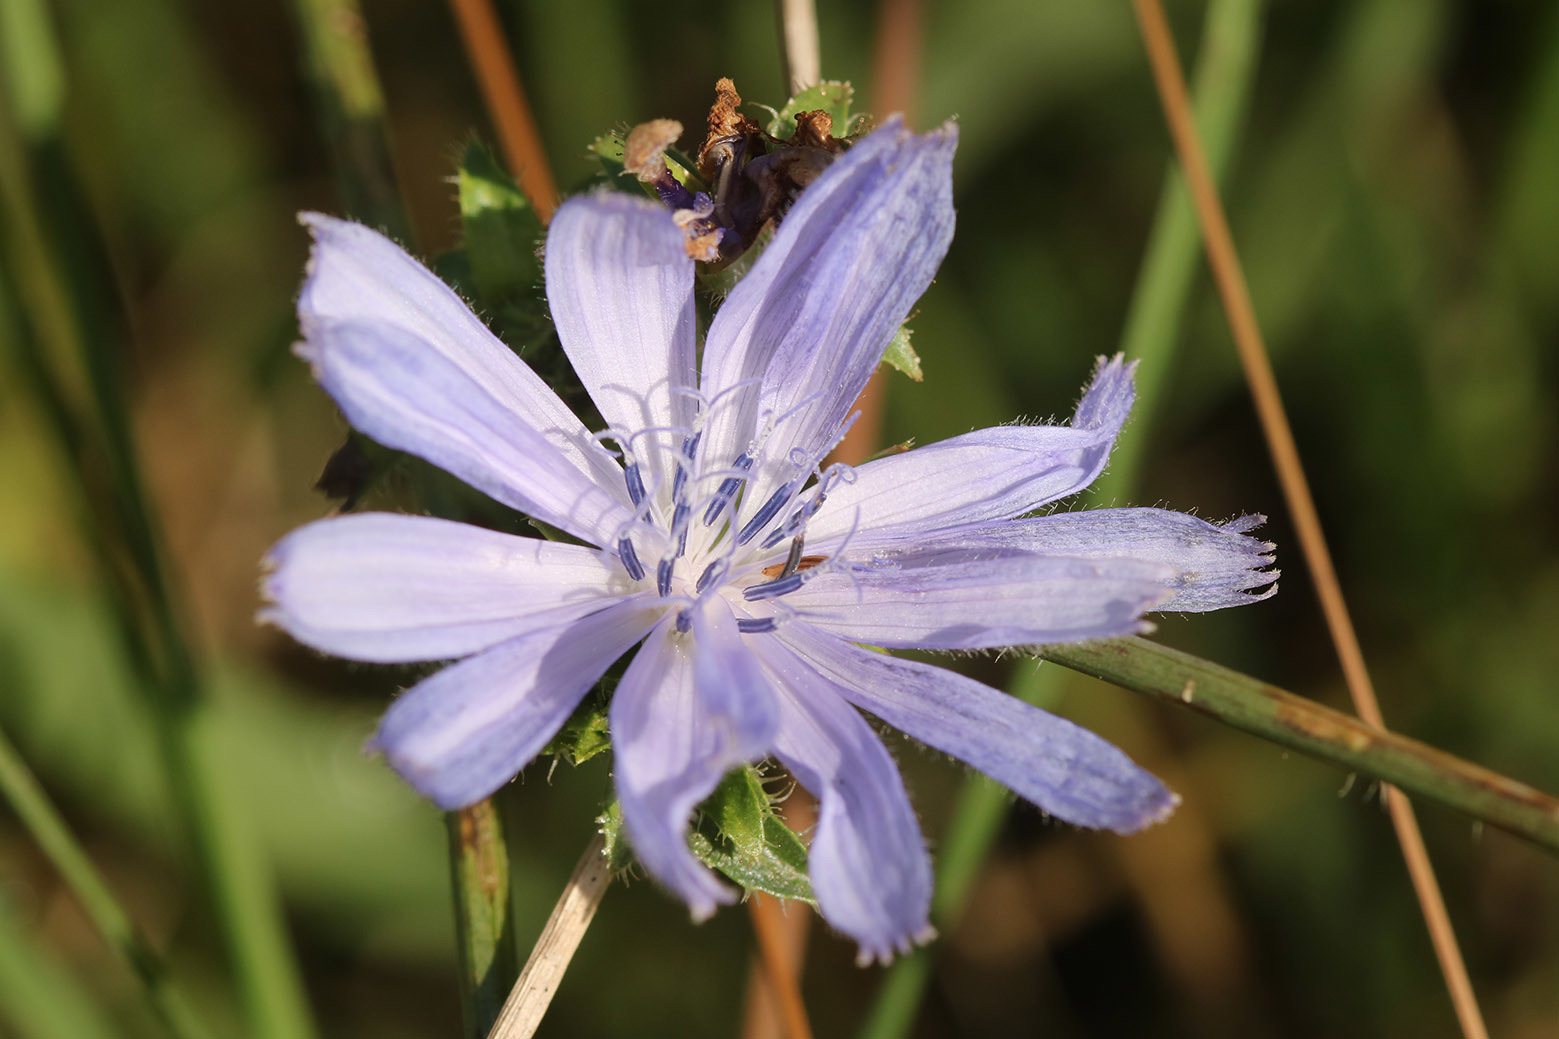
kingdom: Plantae
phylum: Tracheophyta
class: Magnoliopsida
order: Asterales
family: Asteraceae
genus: Cichorium
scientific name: Cichorium intybus
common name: Chicory
